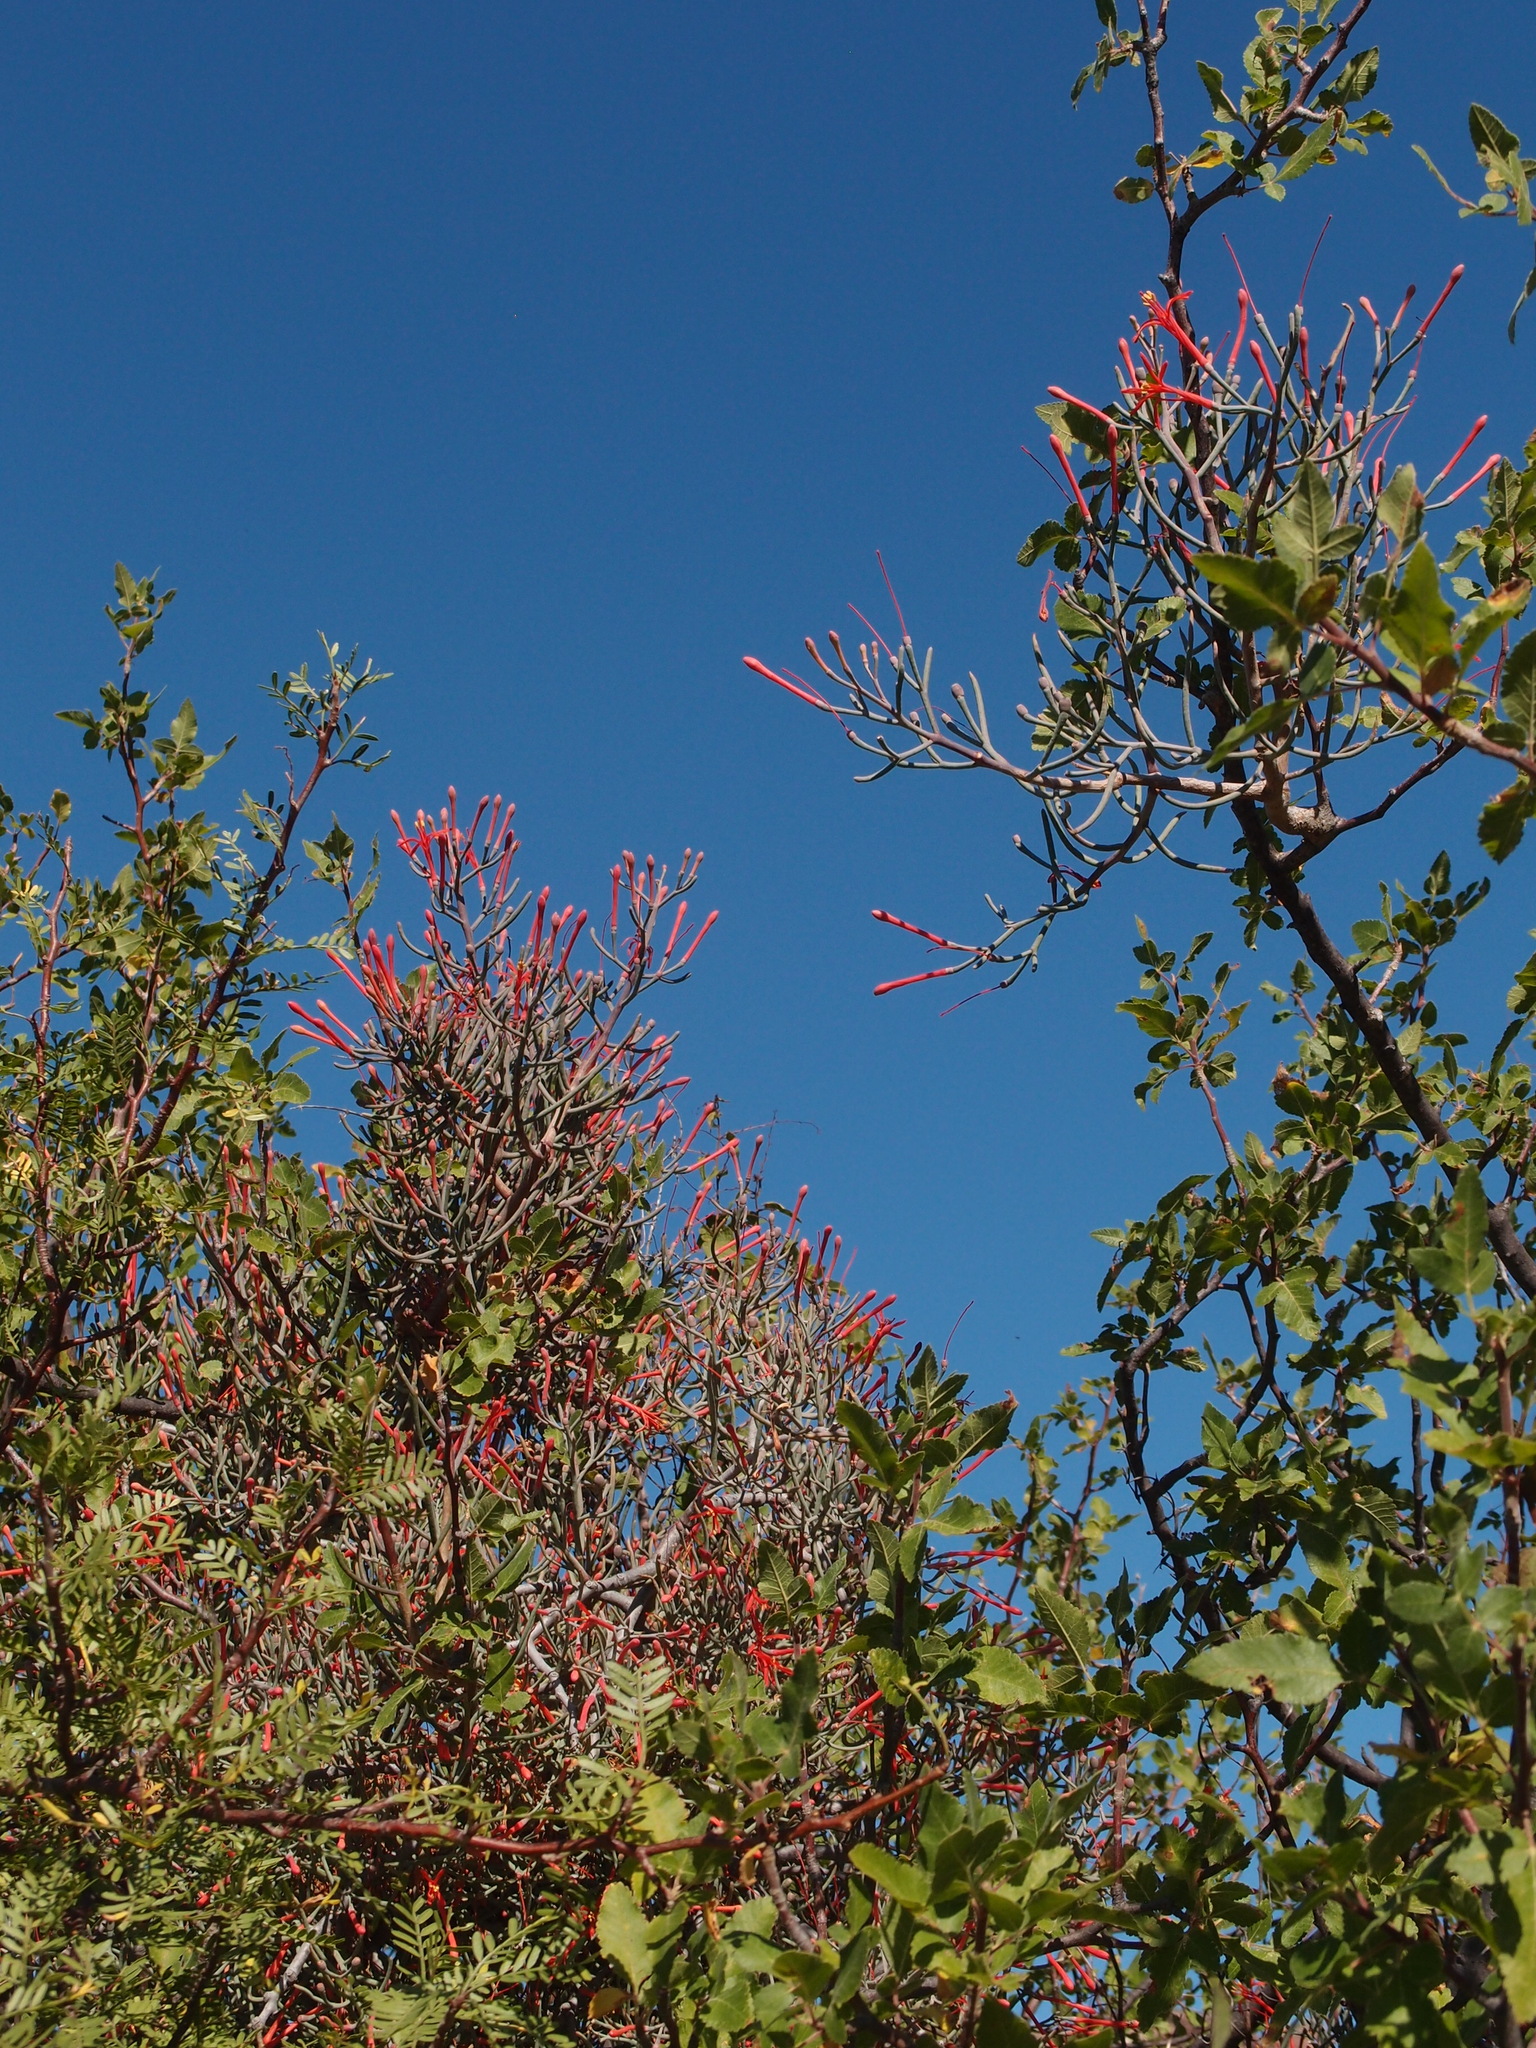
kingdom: Plantae
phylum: Tracheophyta
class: Magnoliopsida
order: Santalales
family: Loranthaceae
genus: Psittacanthus
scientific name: Psittacanthus sonorae
